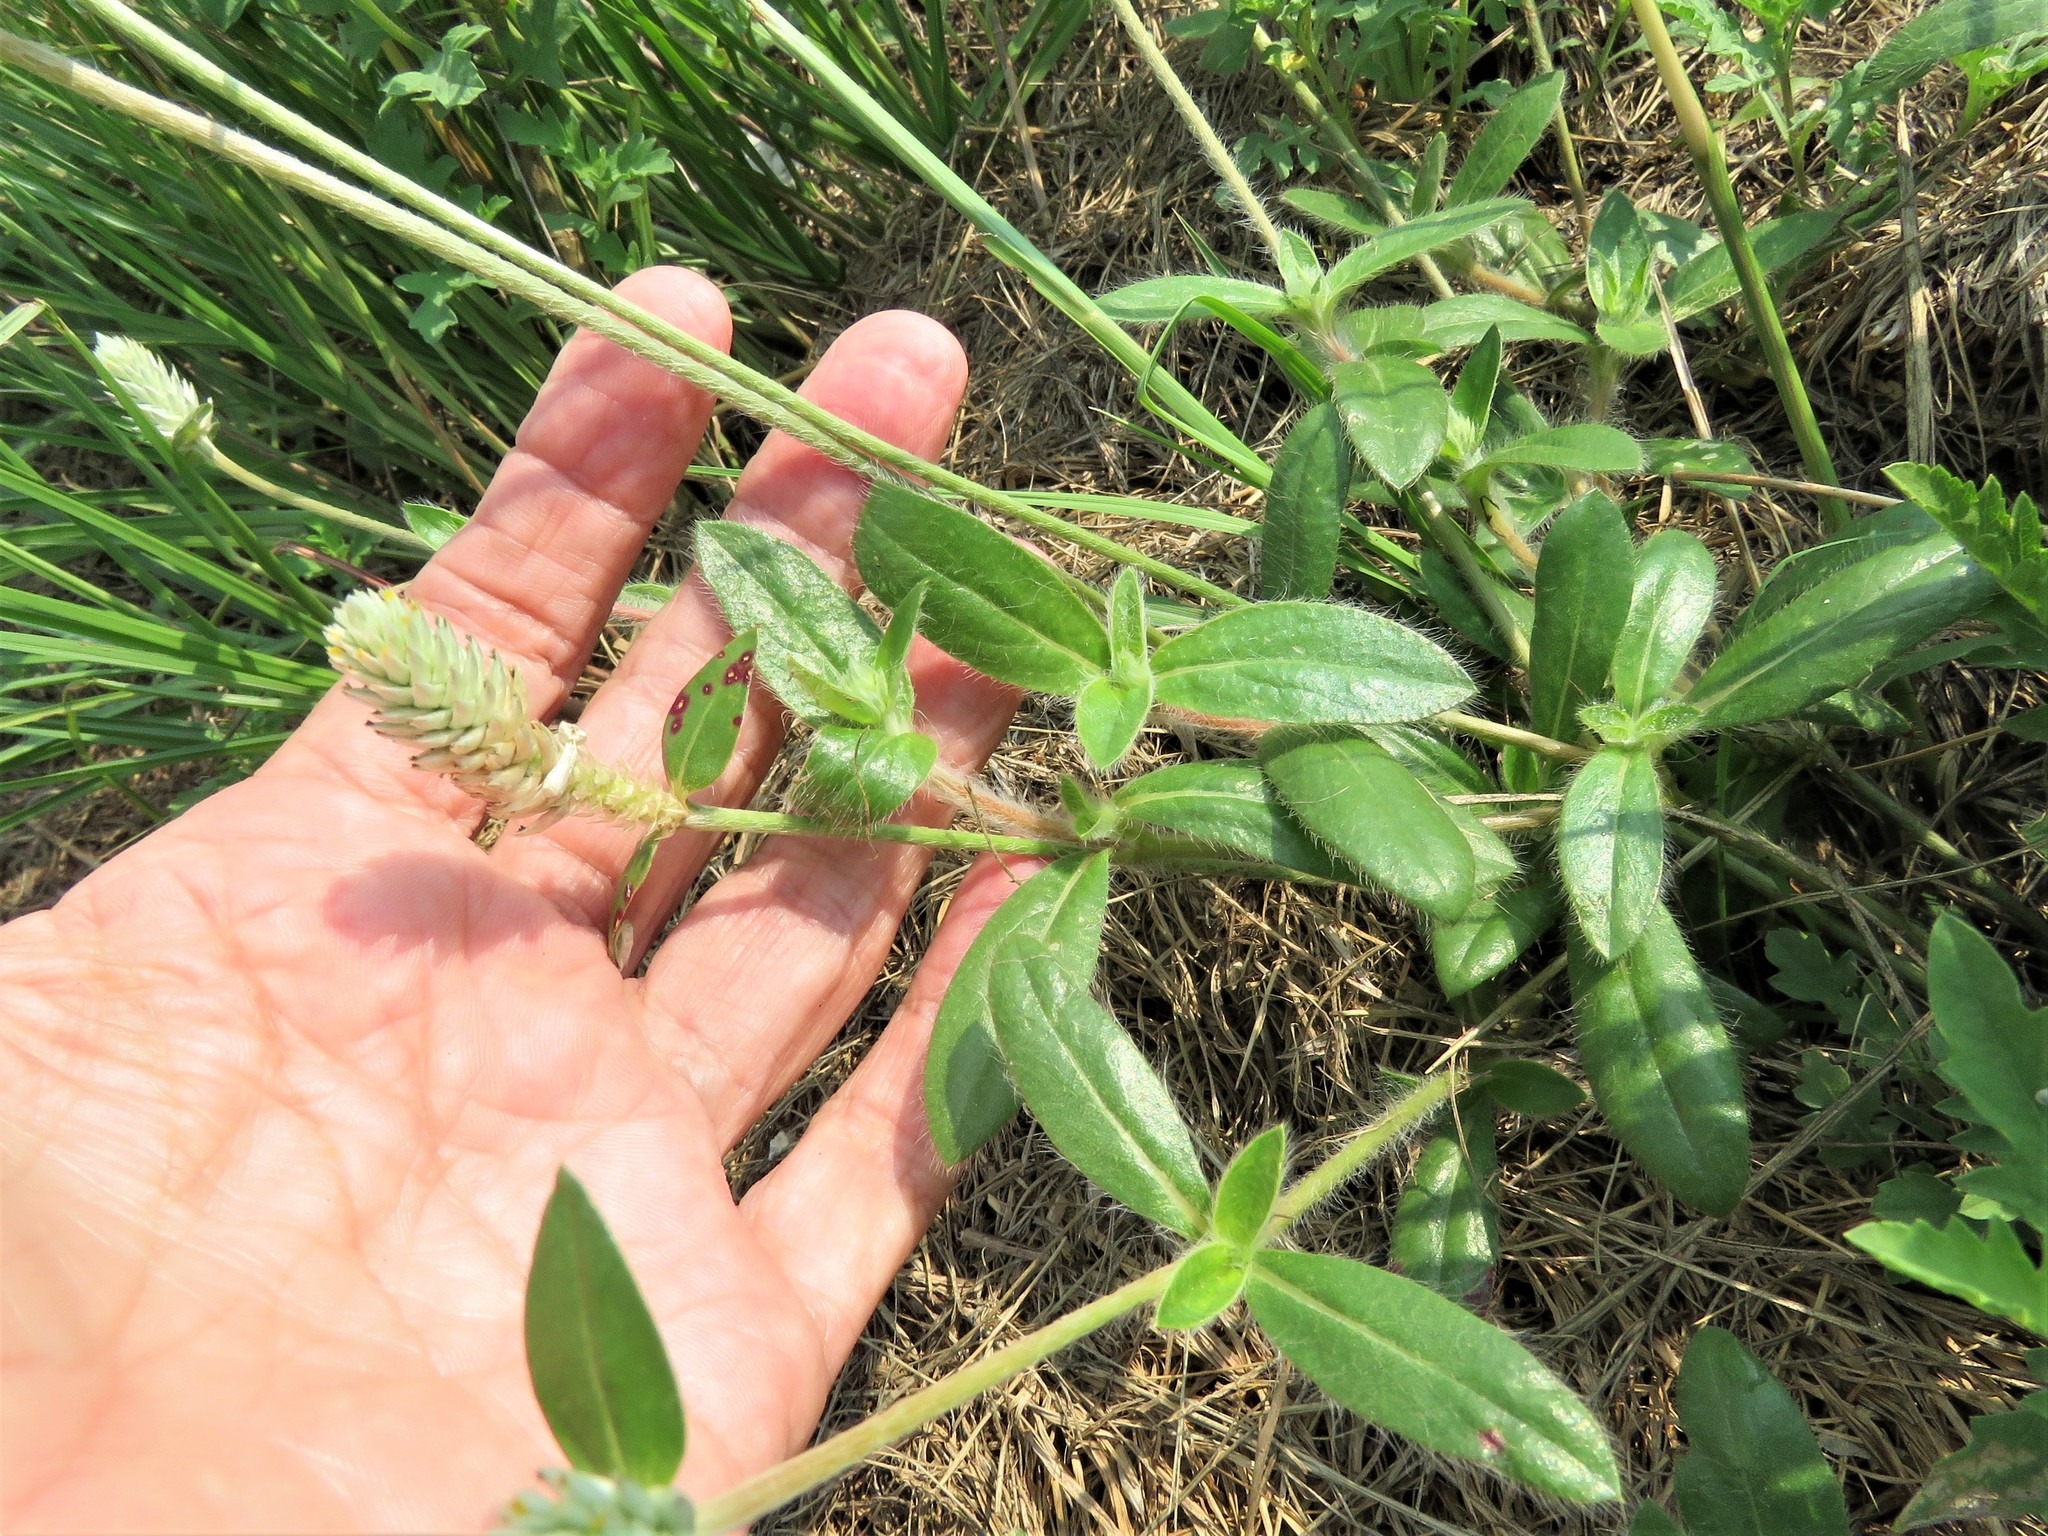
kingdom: Plantae
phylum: Tracheophyta
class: Magnoliopsida
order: Caryophyllales
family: Amaranthaceae
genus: Gomphrena
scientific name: Gomphrena serrata
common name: Arrasa con todo
